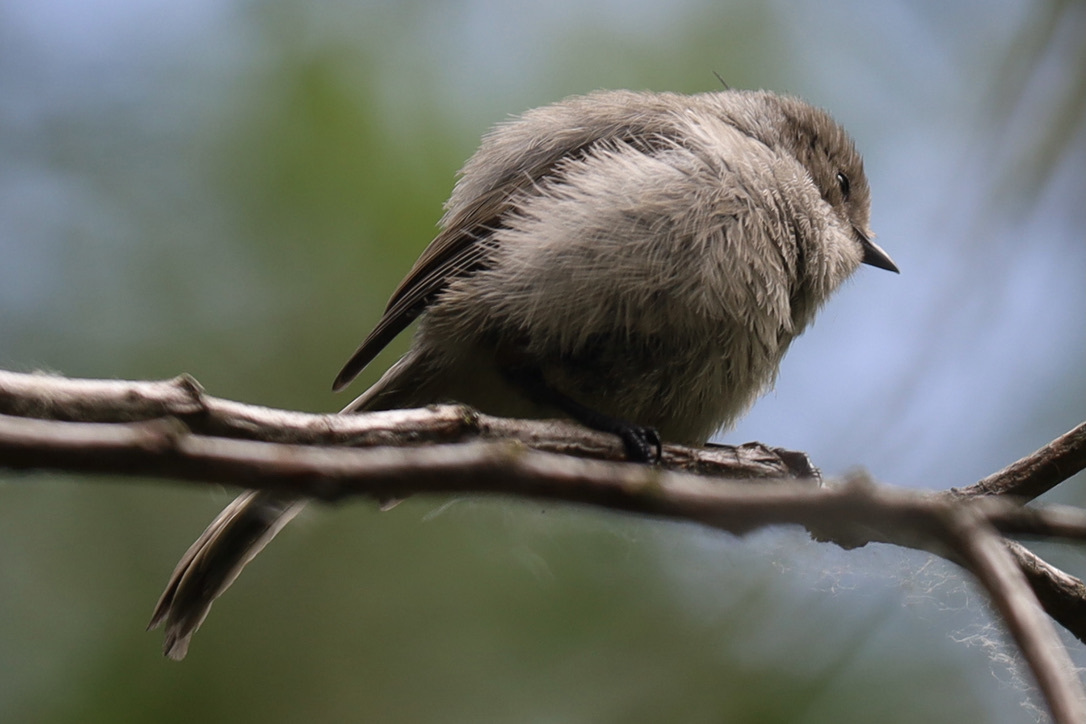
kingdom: Animalia
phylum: Chordata
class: Aves
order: Passeriformes
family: Aegithalidae
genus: Psaltriparus
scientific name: Psaltriparus minimus
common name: American bushtit
